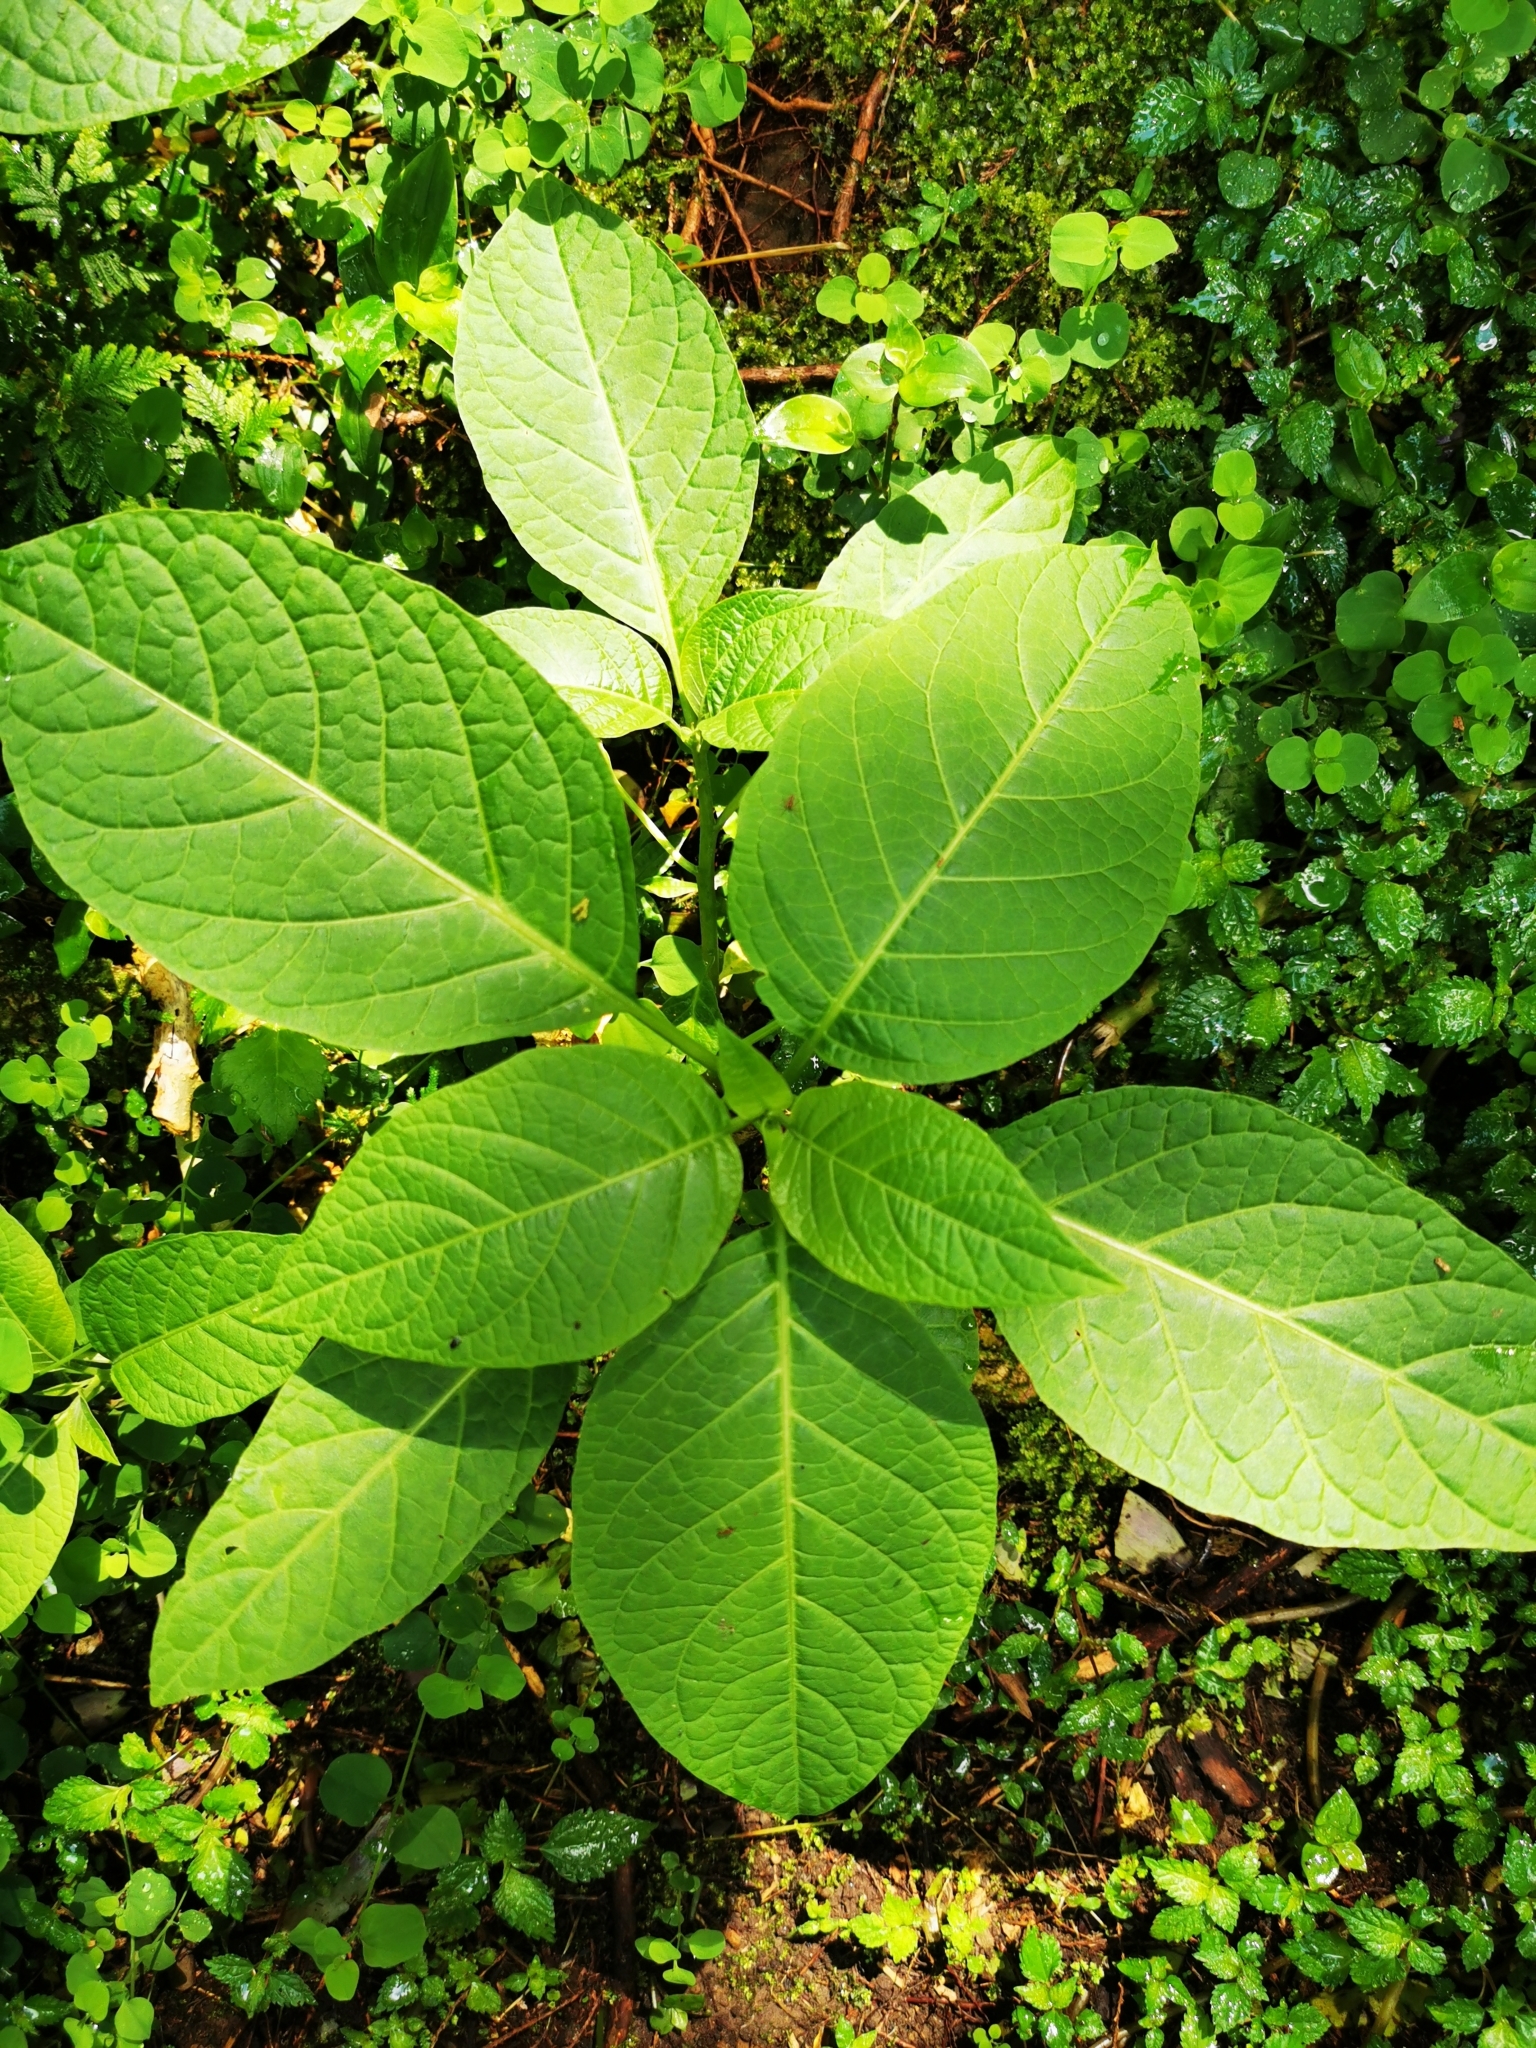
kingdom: Plantae
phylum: Tracheophyta
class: Magnoliopsida
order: Solanales
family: Solanaceae
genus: Brugmansia
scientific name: Brugmansia suaveolens
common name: Angel's tears
